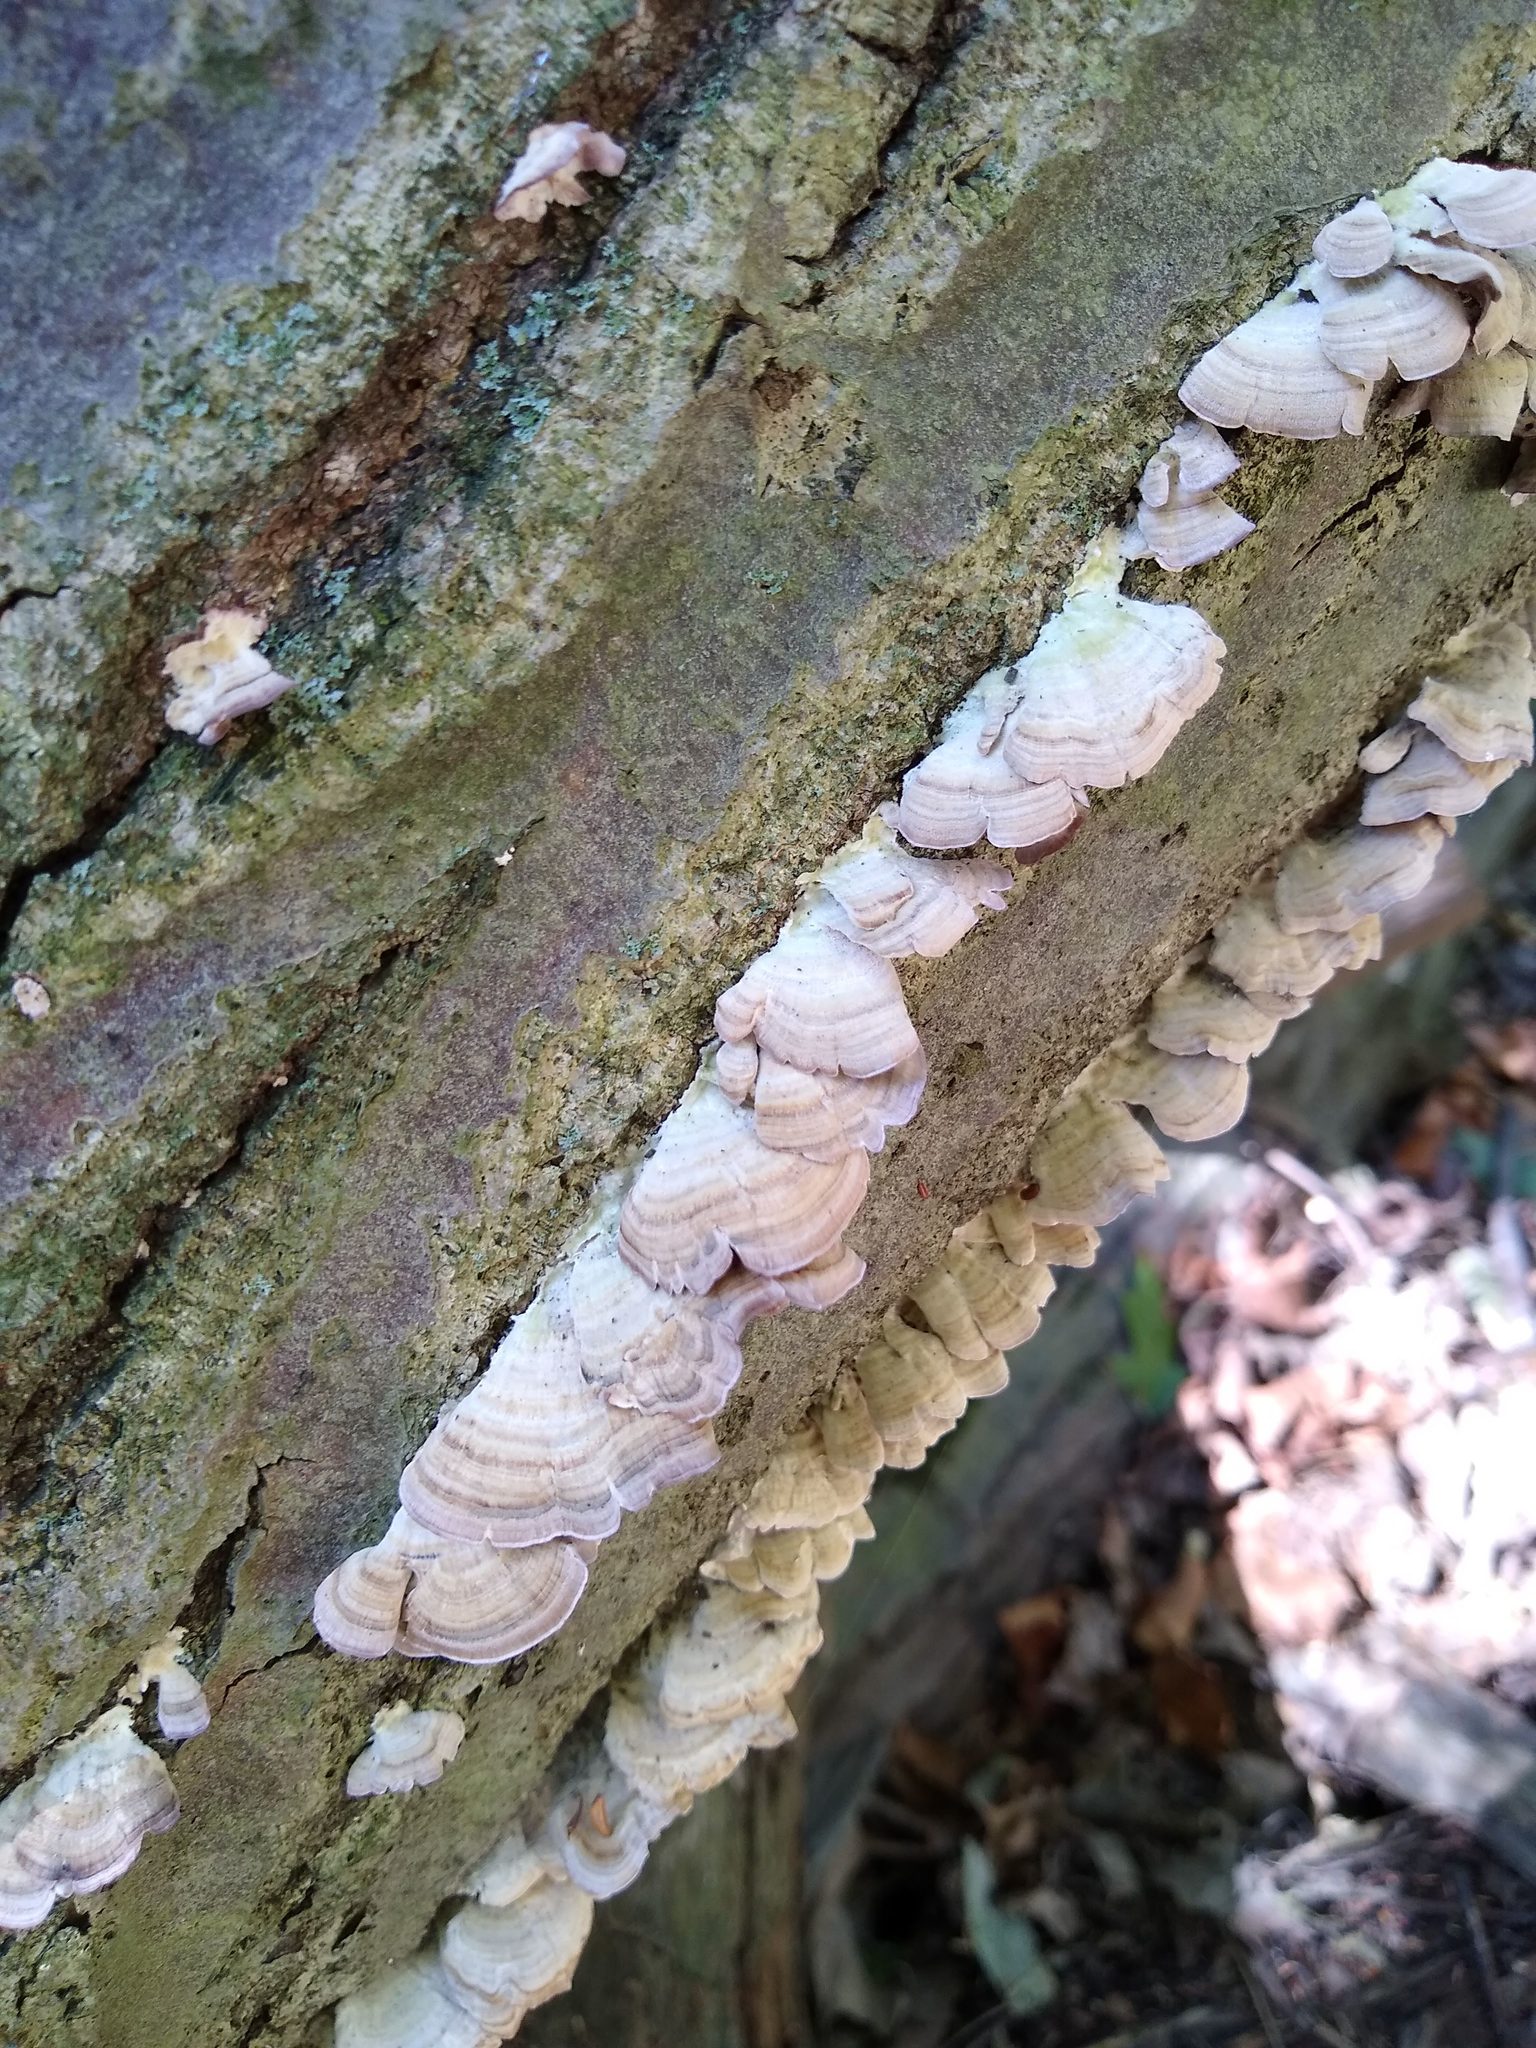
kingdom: Fungi
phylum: Basidiomycota
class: Agaricomycetes
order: Hymenochaetales
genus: Trichaptum
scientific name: Trichaptum abietinum
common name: Purplepore bracket
